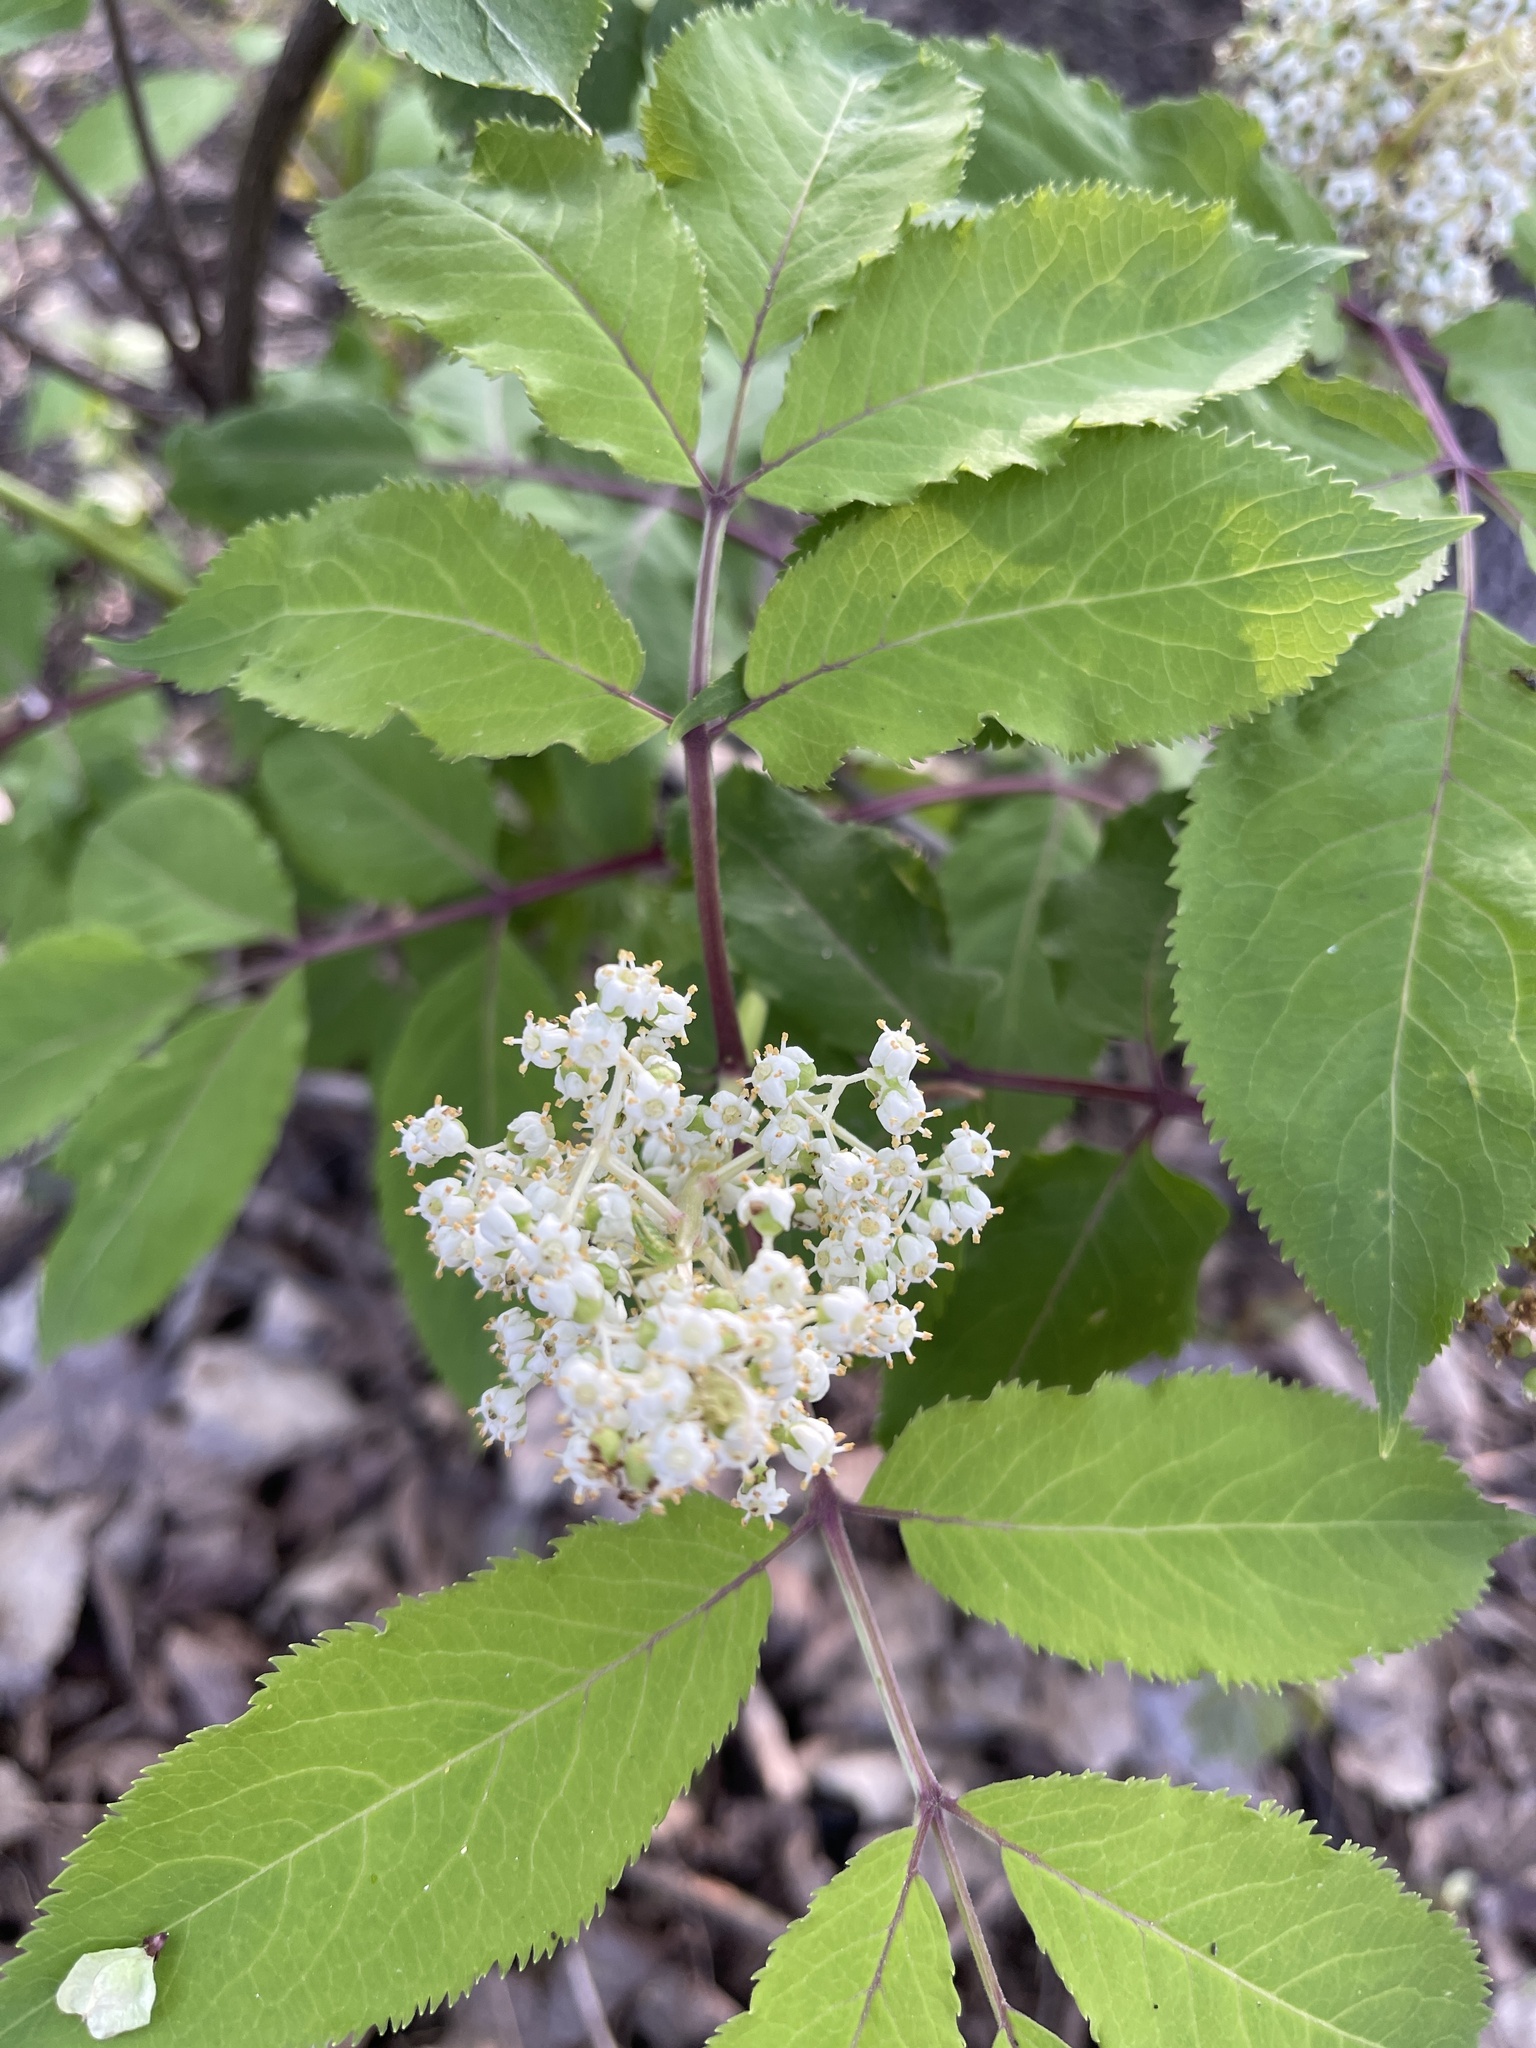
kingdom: Plantae
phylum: Tracheophyta
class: Magnoliopsida
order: Dipsacales
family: Viburnaceae
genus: Sambucus
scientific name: Sambucus racemosa
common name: Red-berried elder
